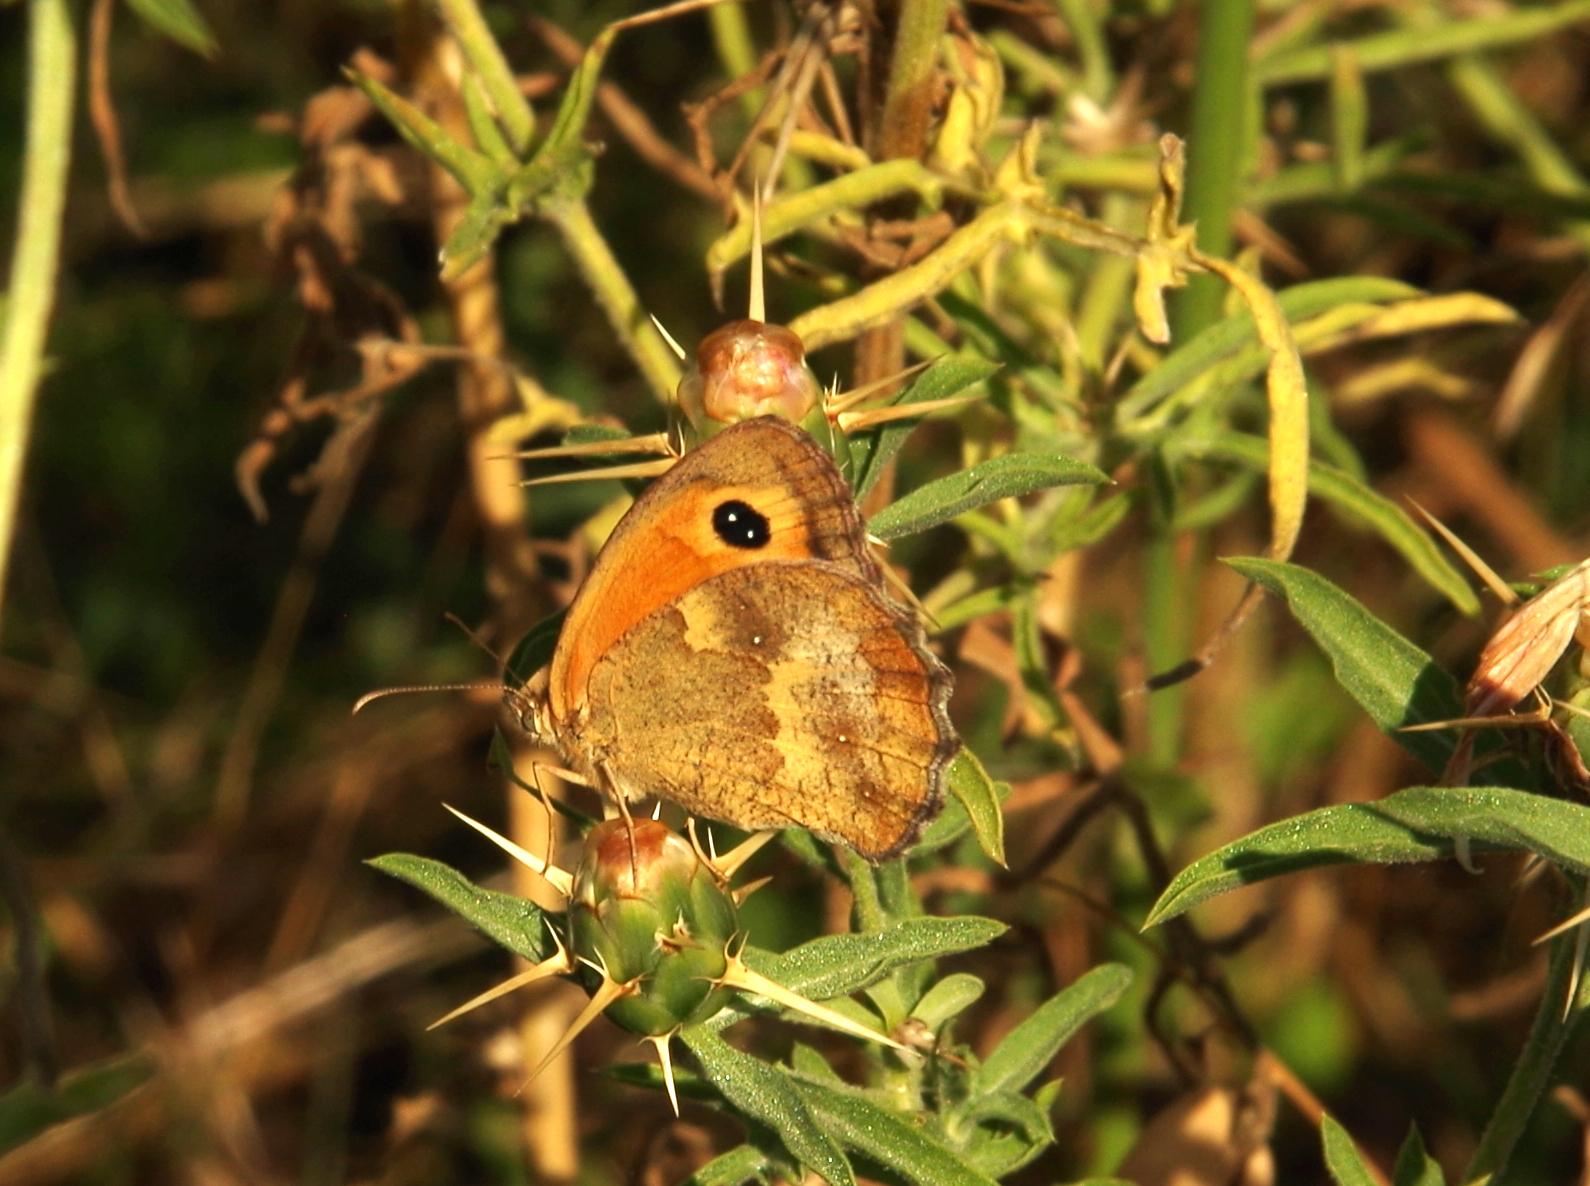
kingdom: Animalia
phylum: Arthropoda
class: Insecta
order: Lepidoptera
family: Nymphalidae
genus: Pyronia
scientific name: Pyronia tithonus
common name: Gatekeeper
